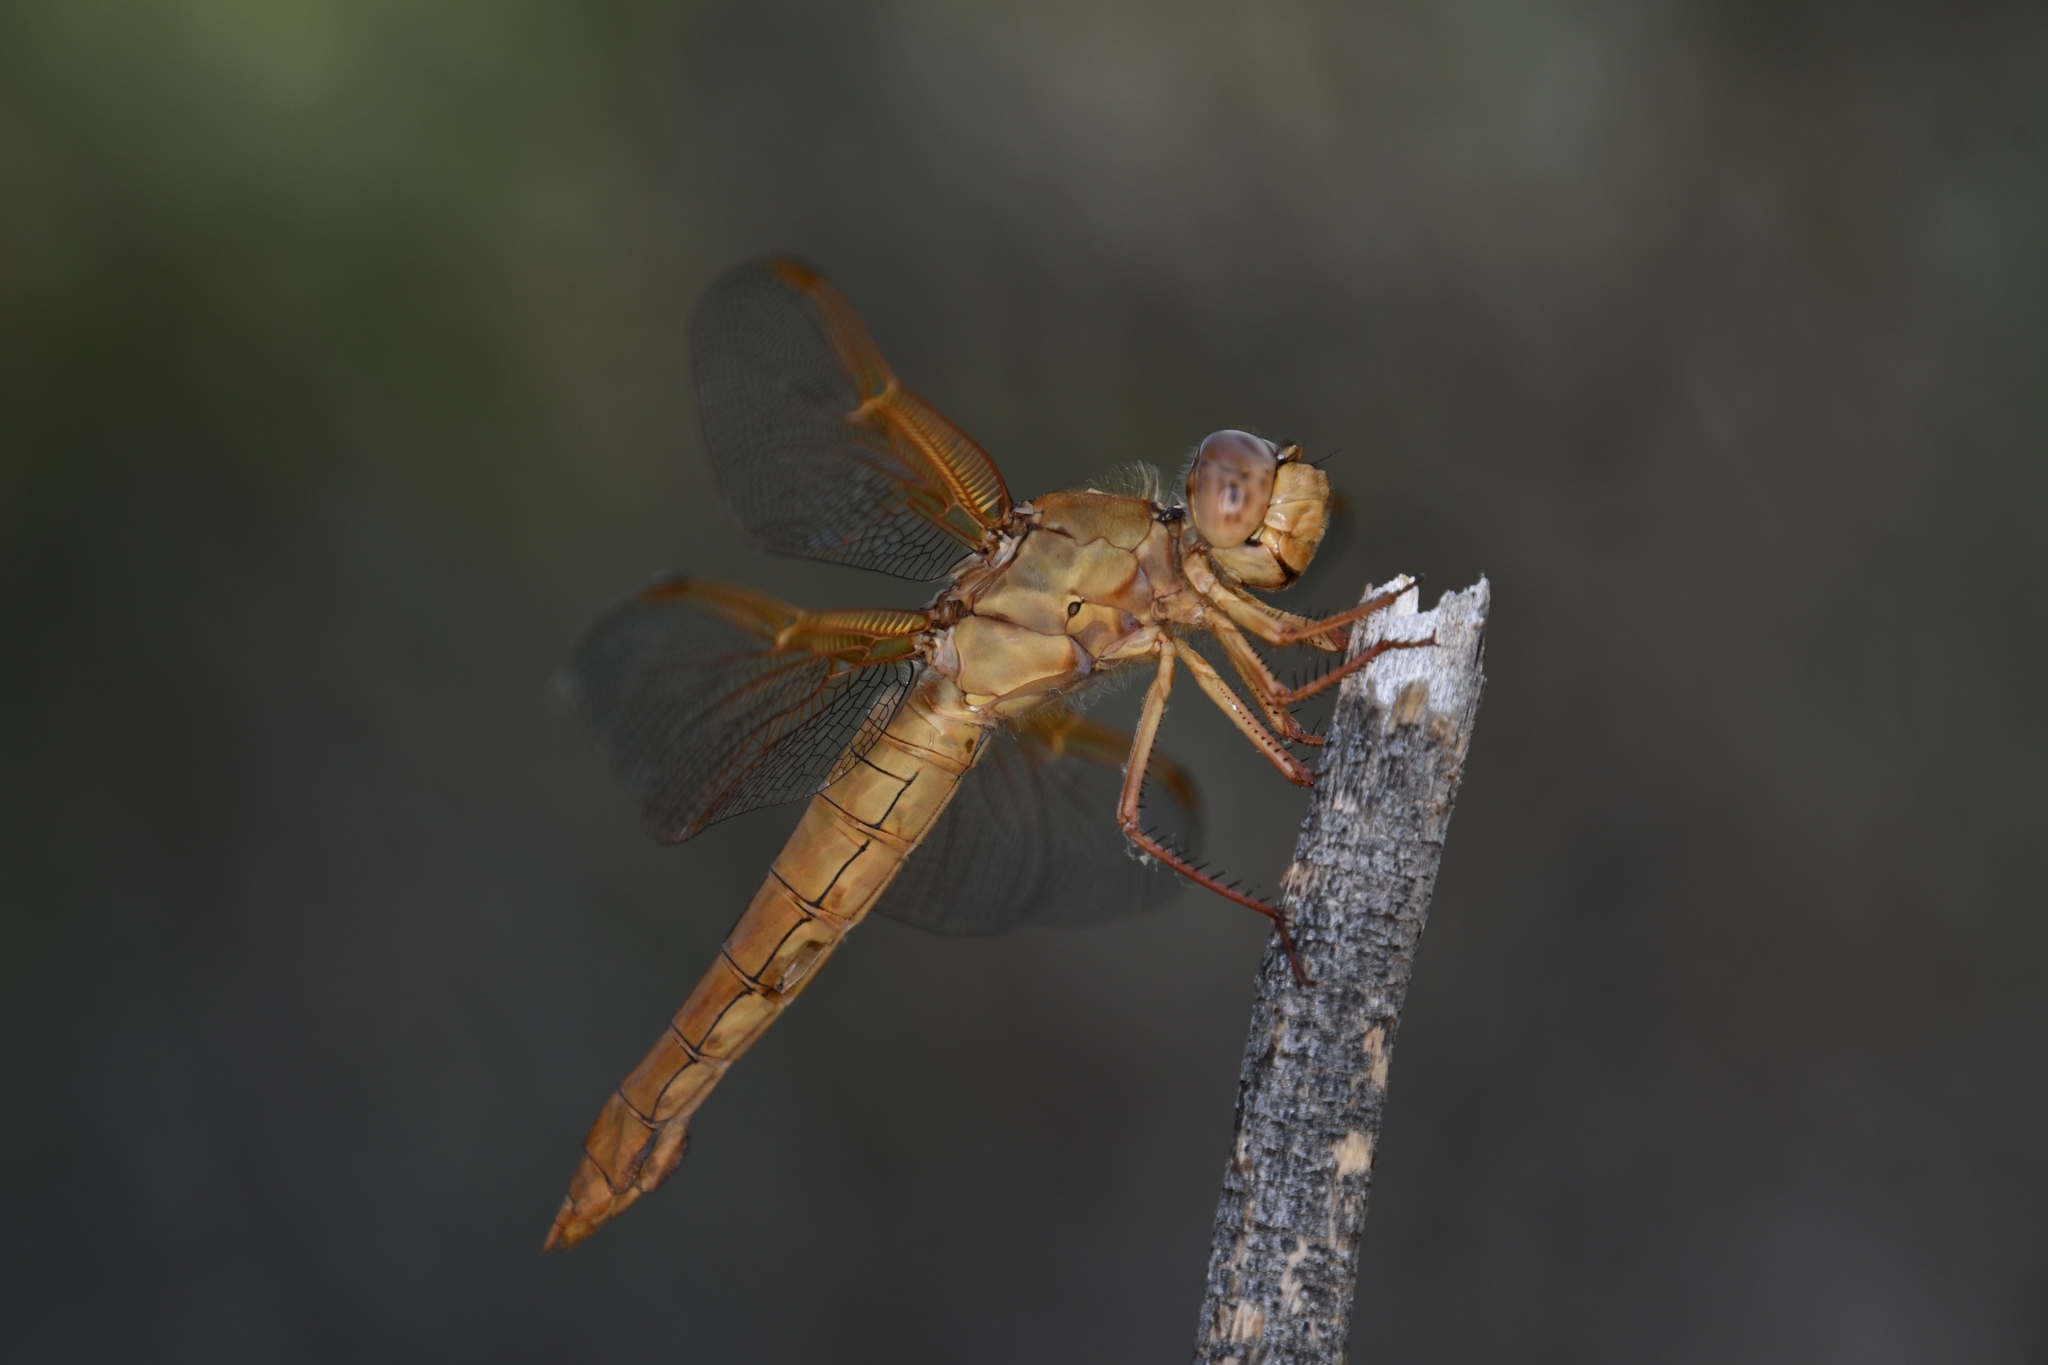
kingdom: Animalia
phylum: Arthropoda
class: Insecta
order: Odonata
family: Libellulidae
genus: Libellula
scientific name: Libellula saturata
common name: Flame skimmer
